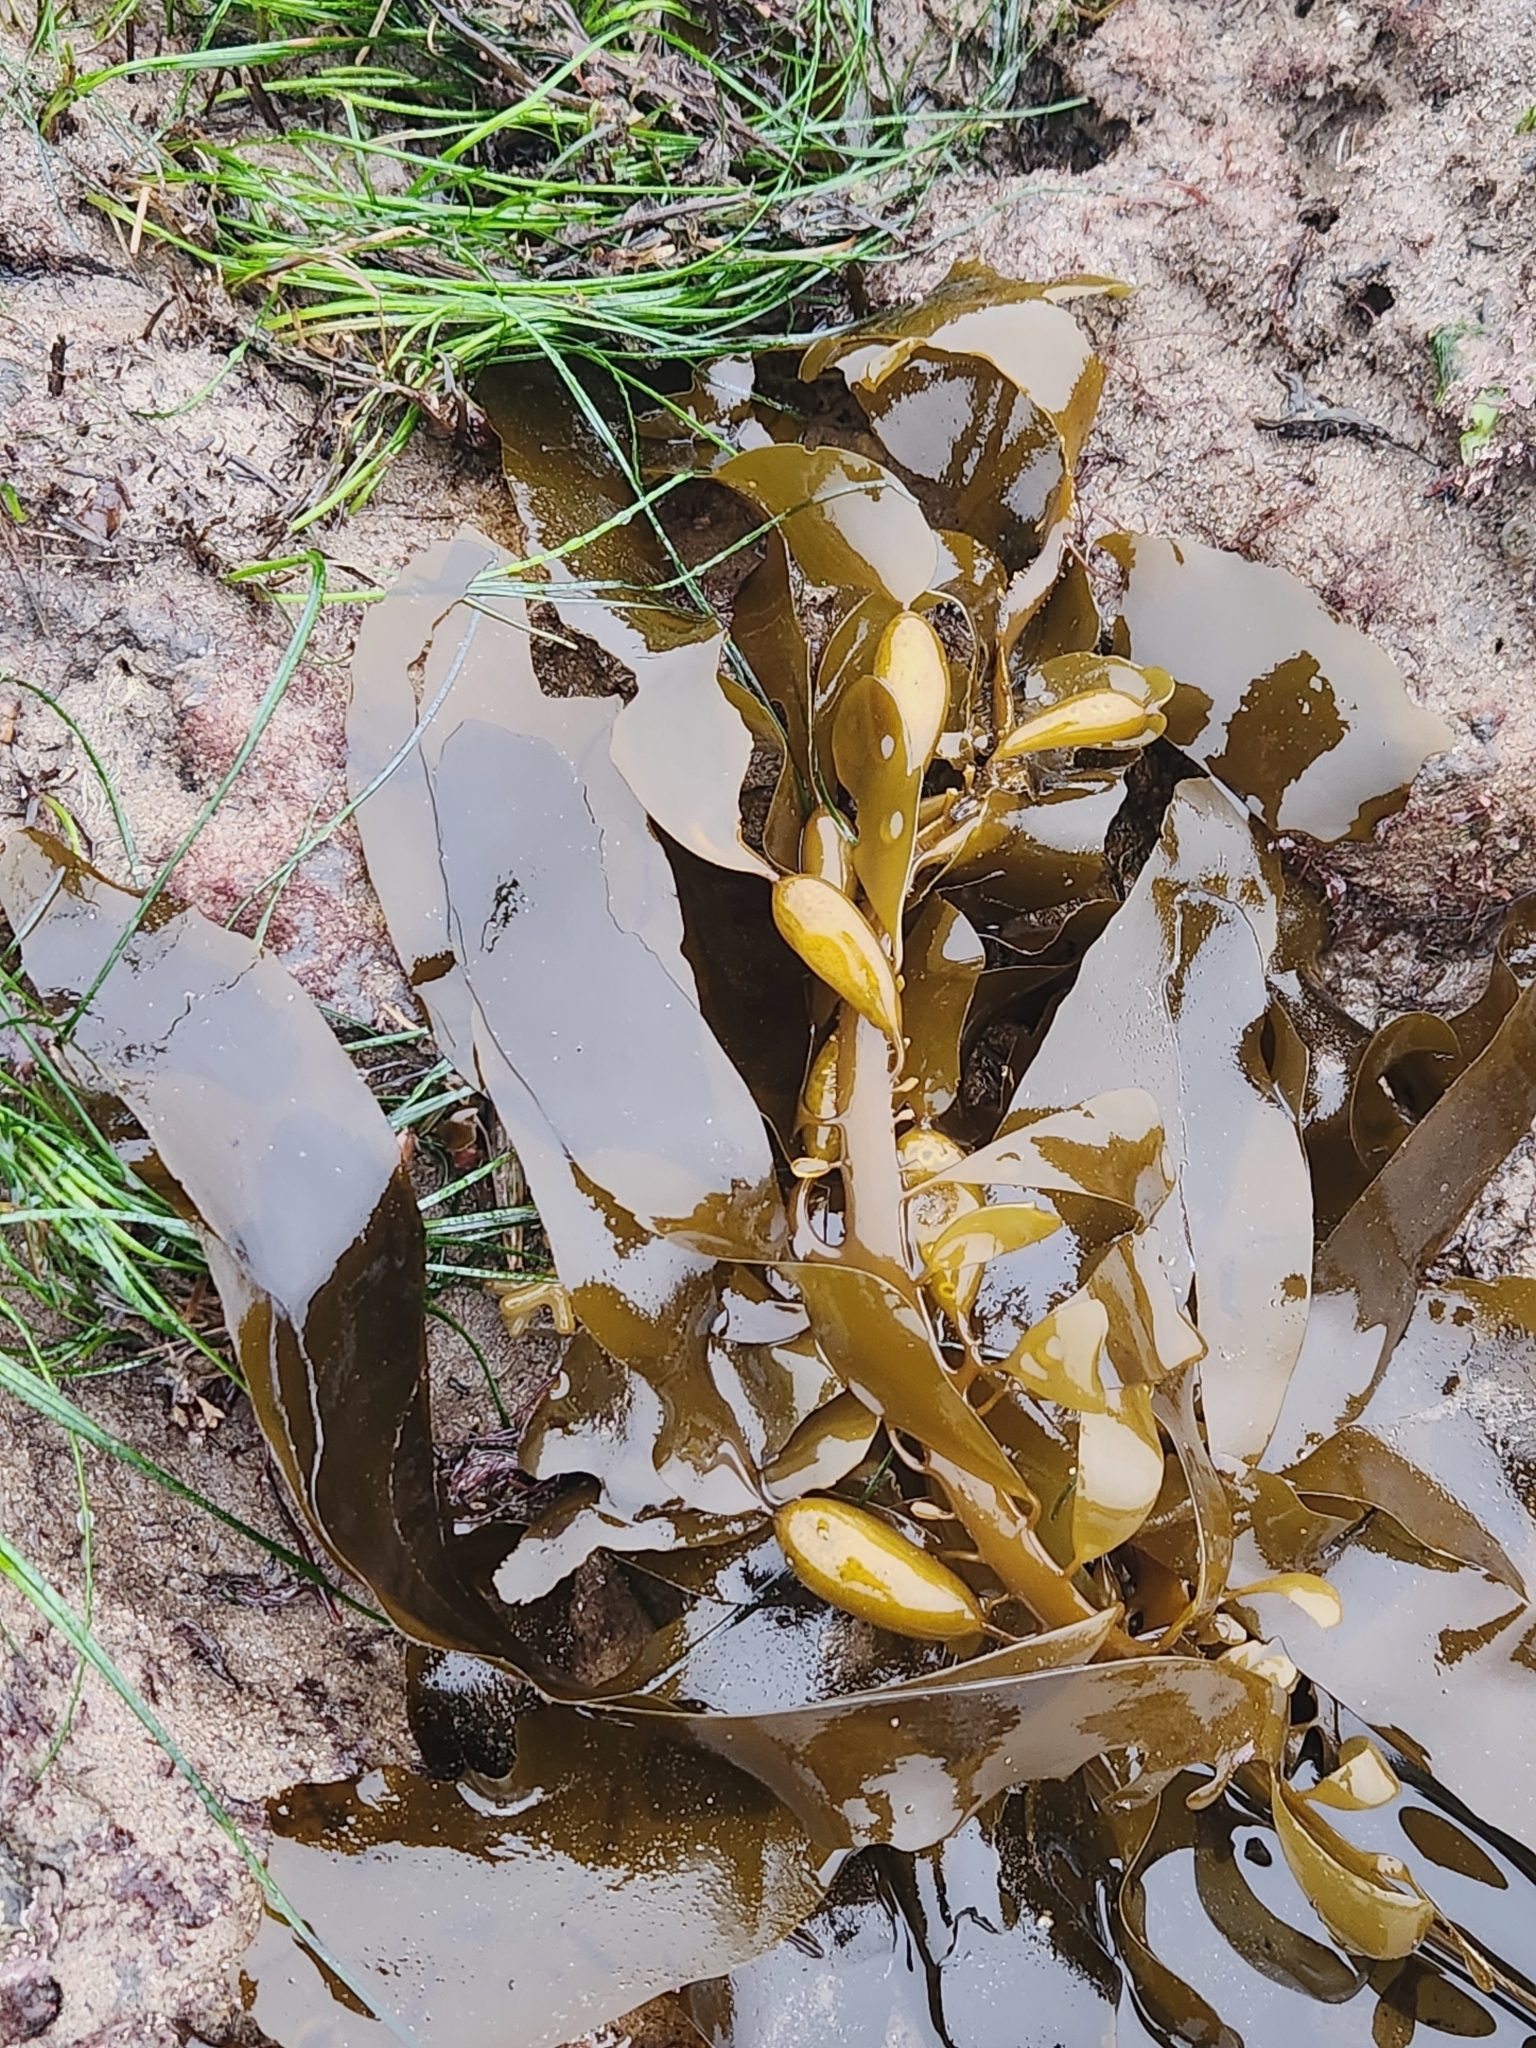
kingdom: Chromista
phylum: Ochrophyta
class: Phaeophyceae
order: Laminariales
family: Lessoniaceae
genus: Egregia
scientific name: Egregia menziesii
